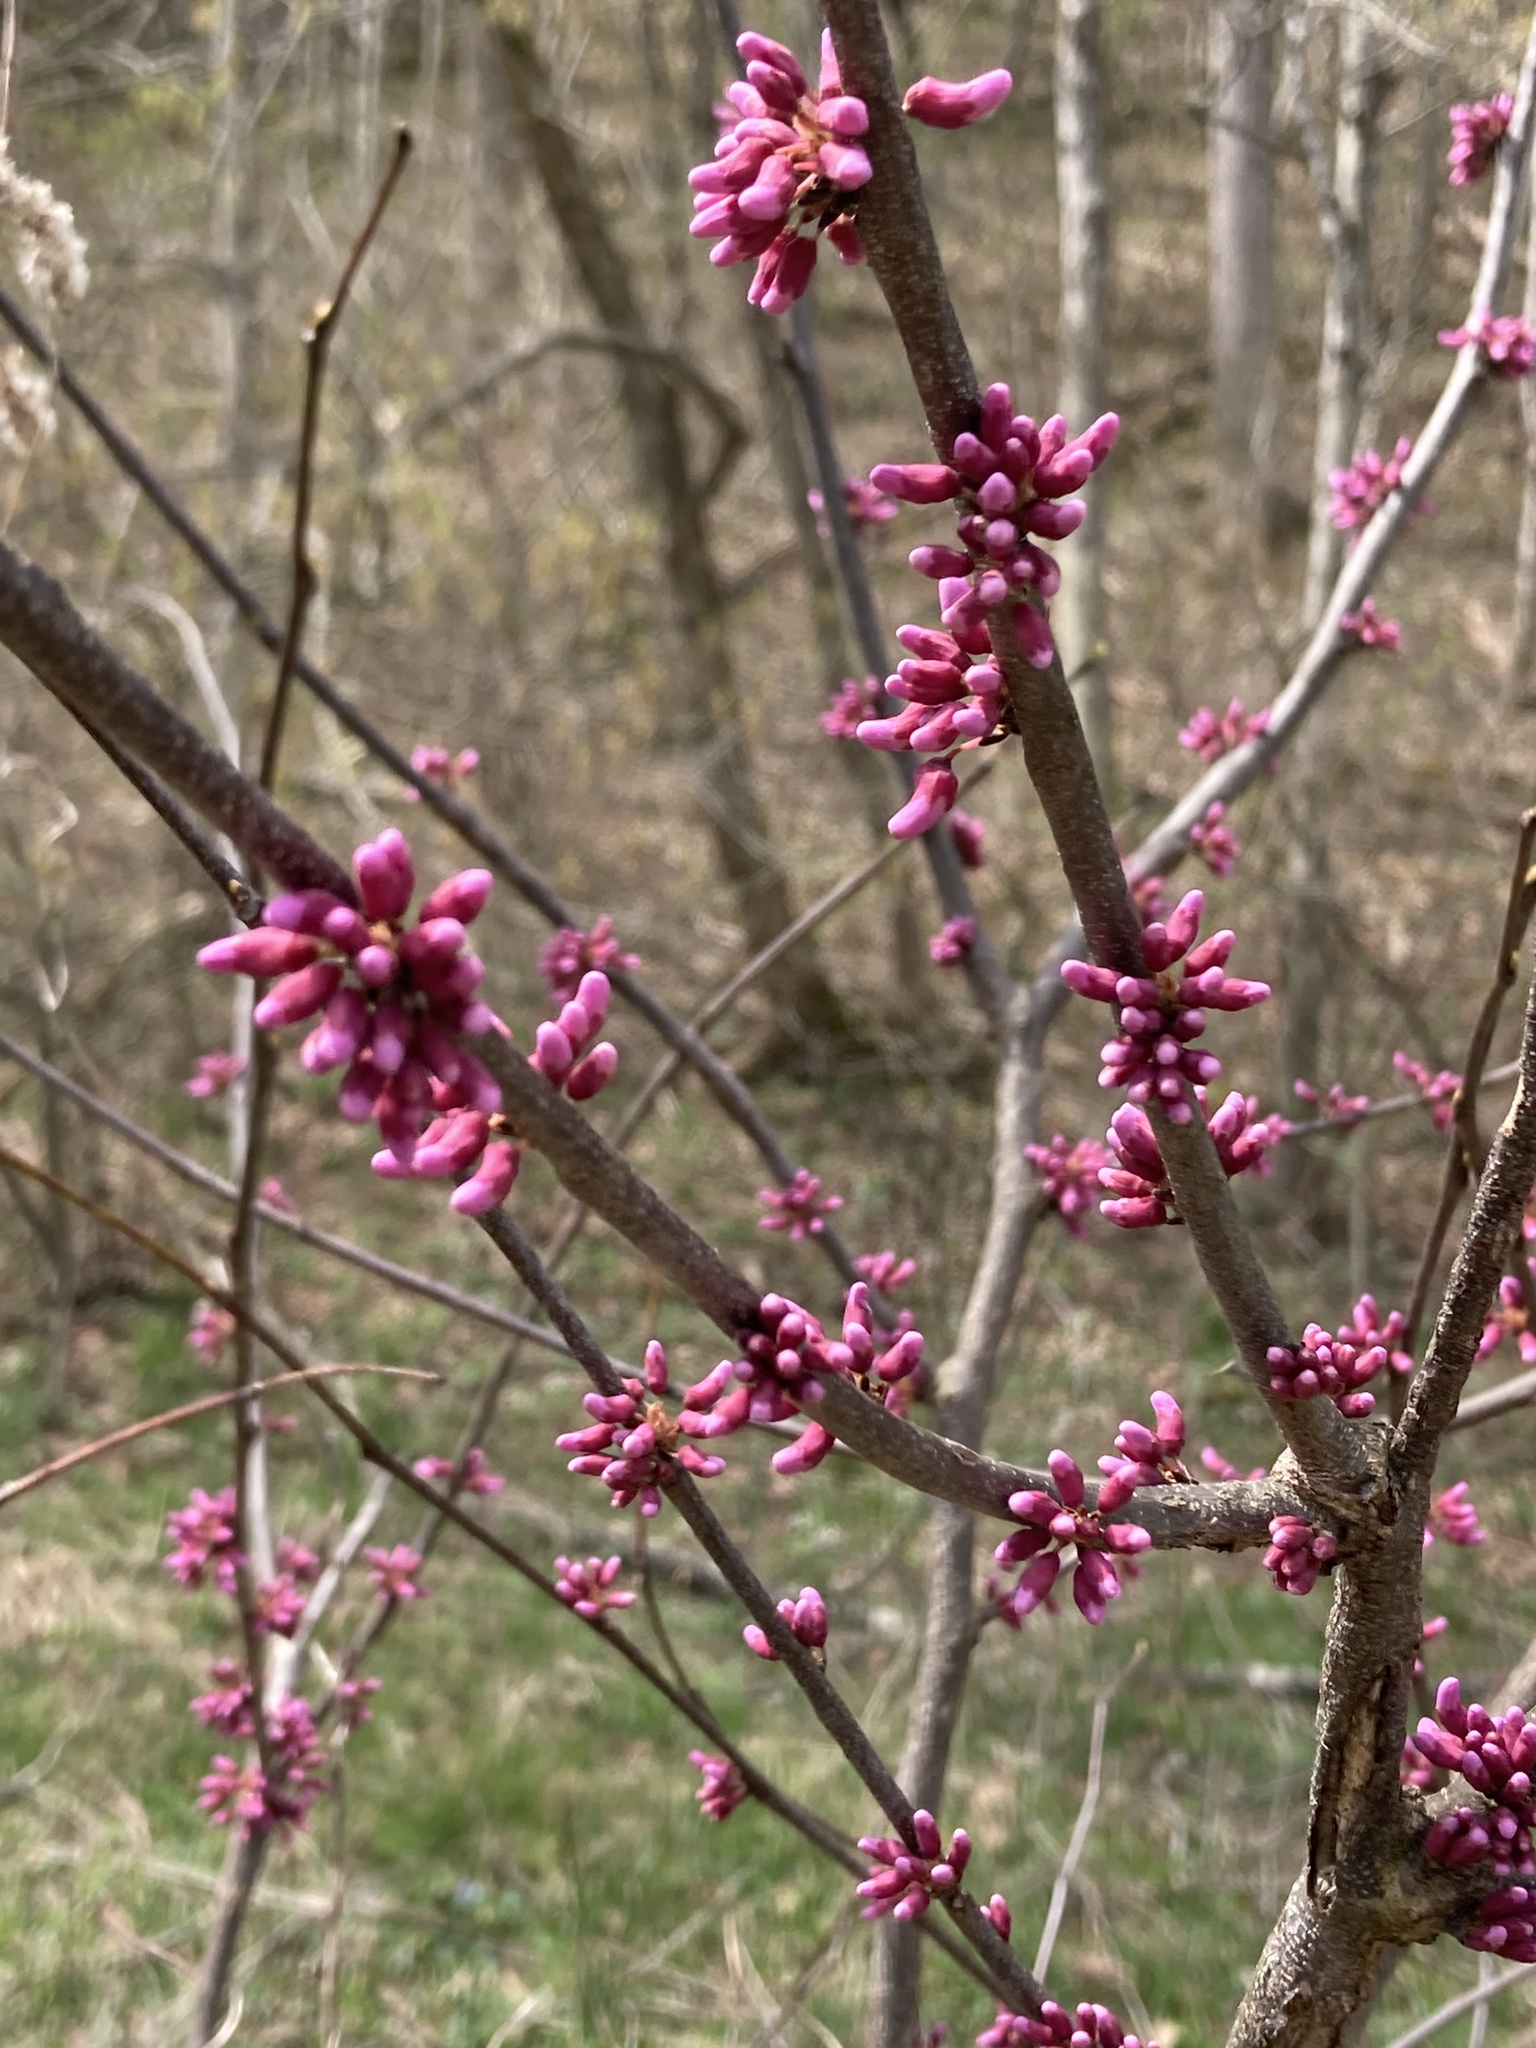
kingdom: Plantae
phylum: Tracheophyta
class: Magnoliopsida
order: Fabales
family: Fabaceae
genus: Cercis
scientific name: Cercis canadensis
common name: Eastern redbud
